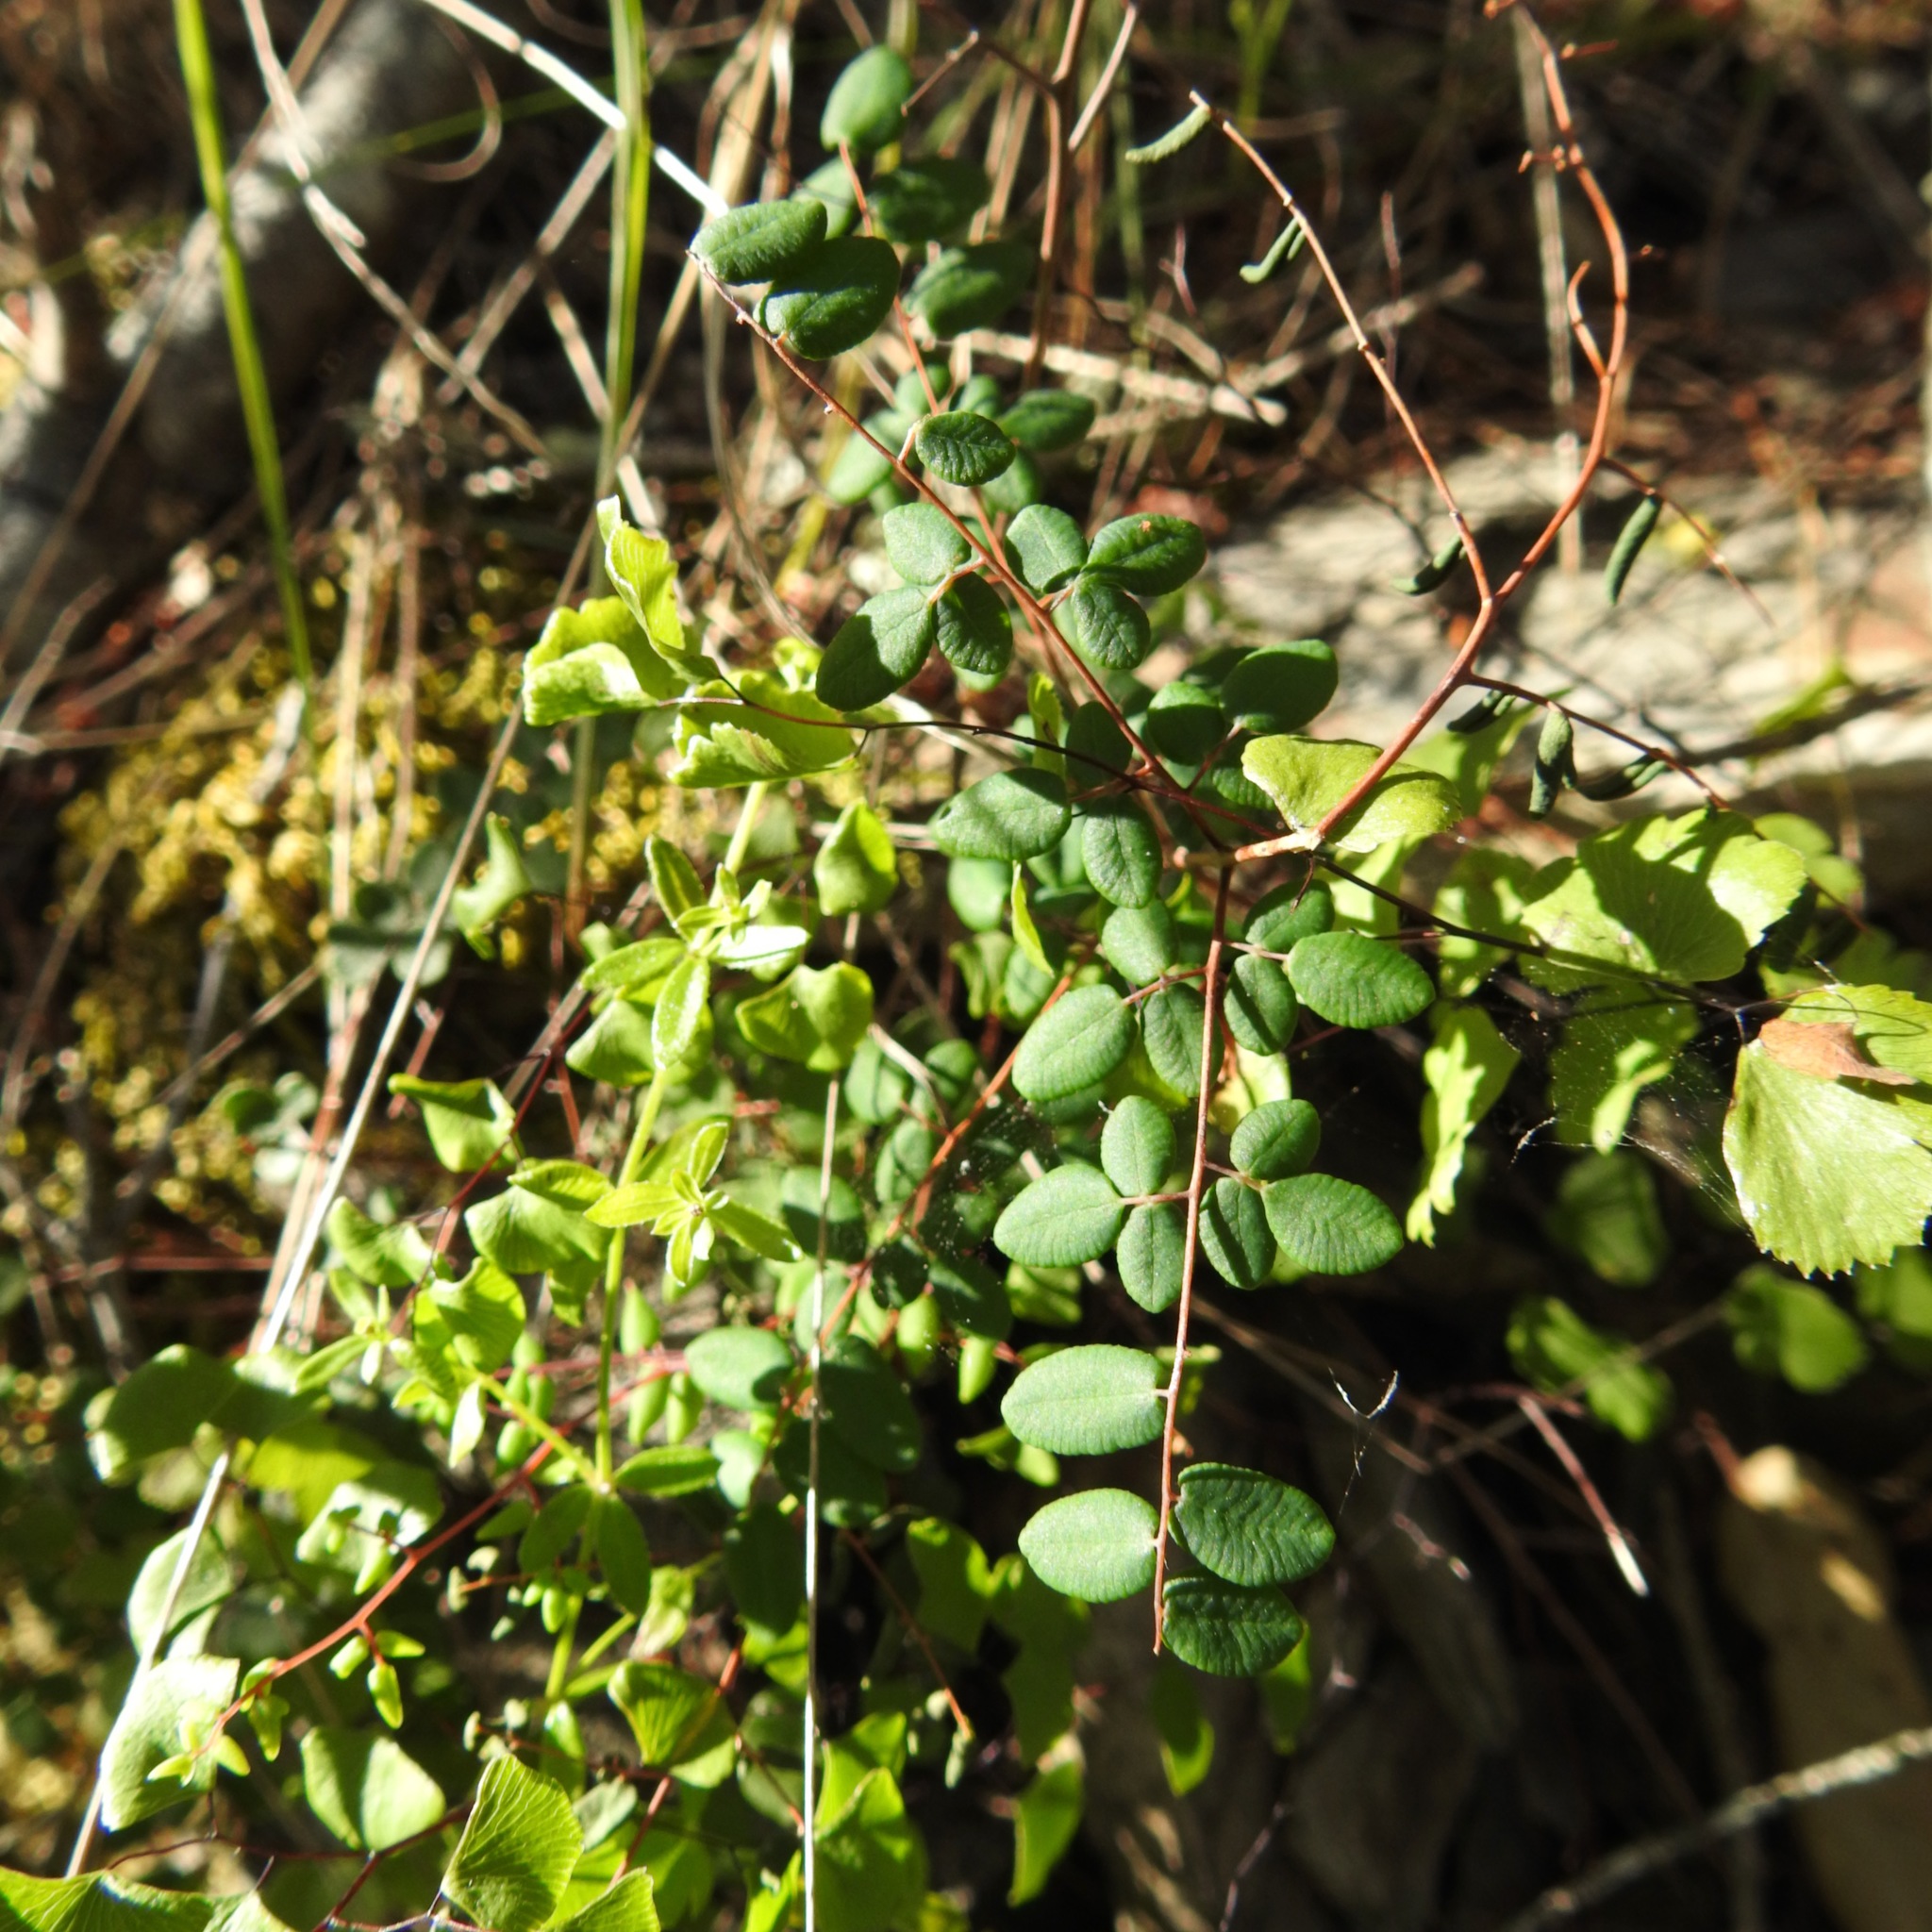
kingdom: Plantae
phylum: Tracheophyta
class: Polypodiopsida
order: Polypodiales
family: Pteridaceae
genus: Pellaea
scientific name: Pellaea andromedifolia
